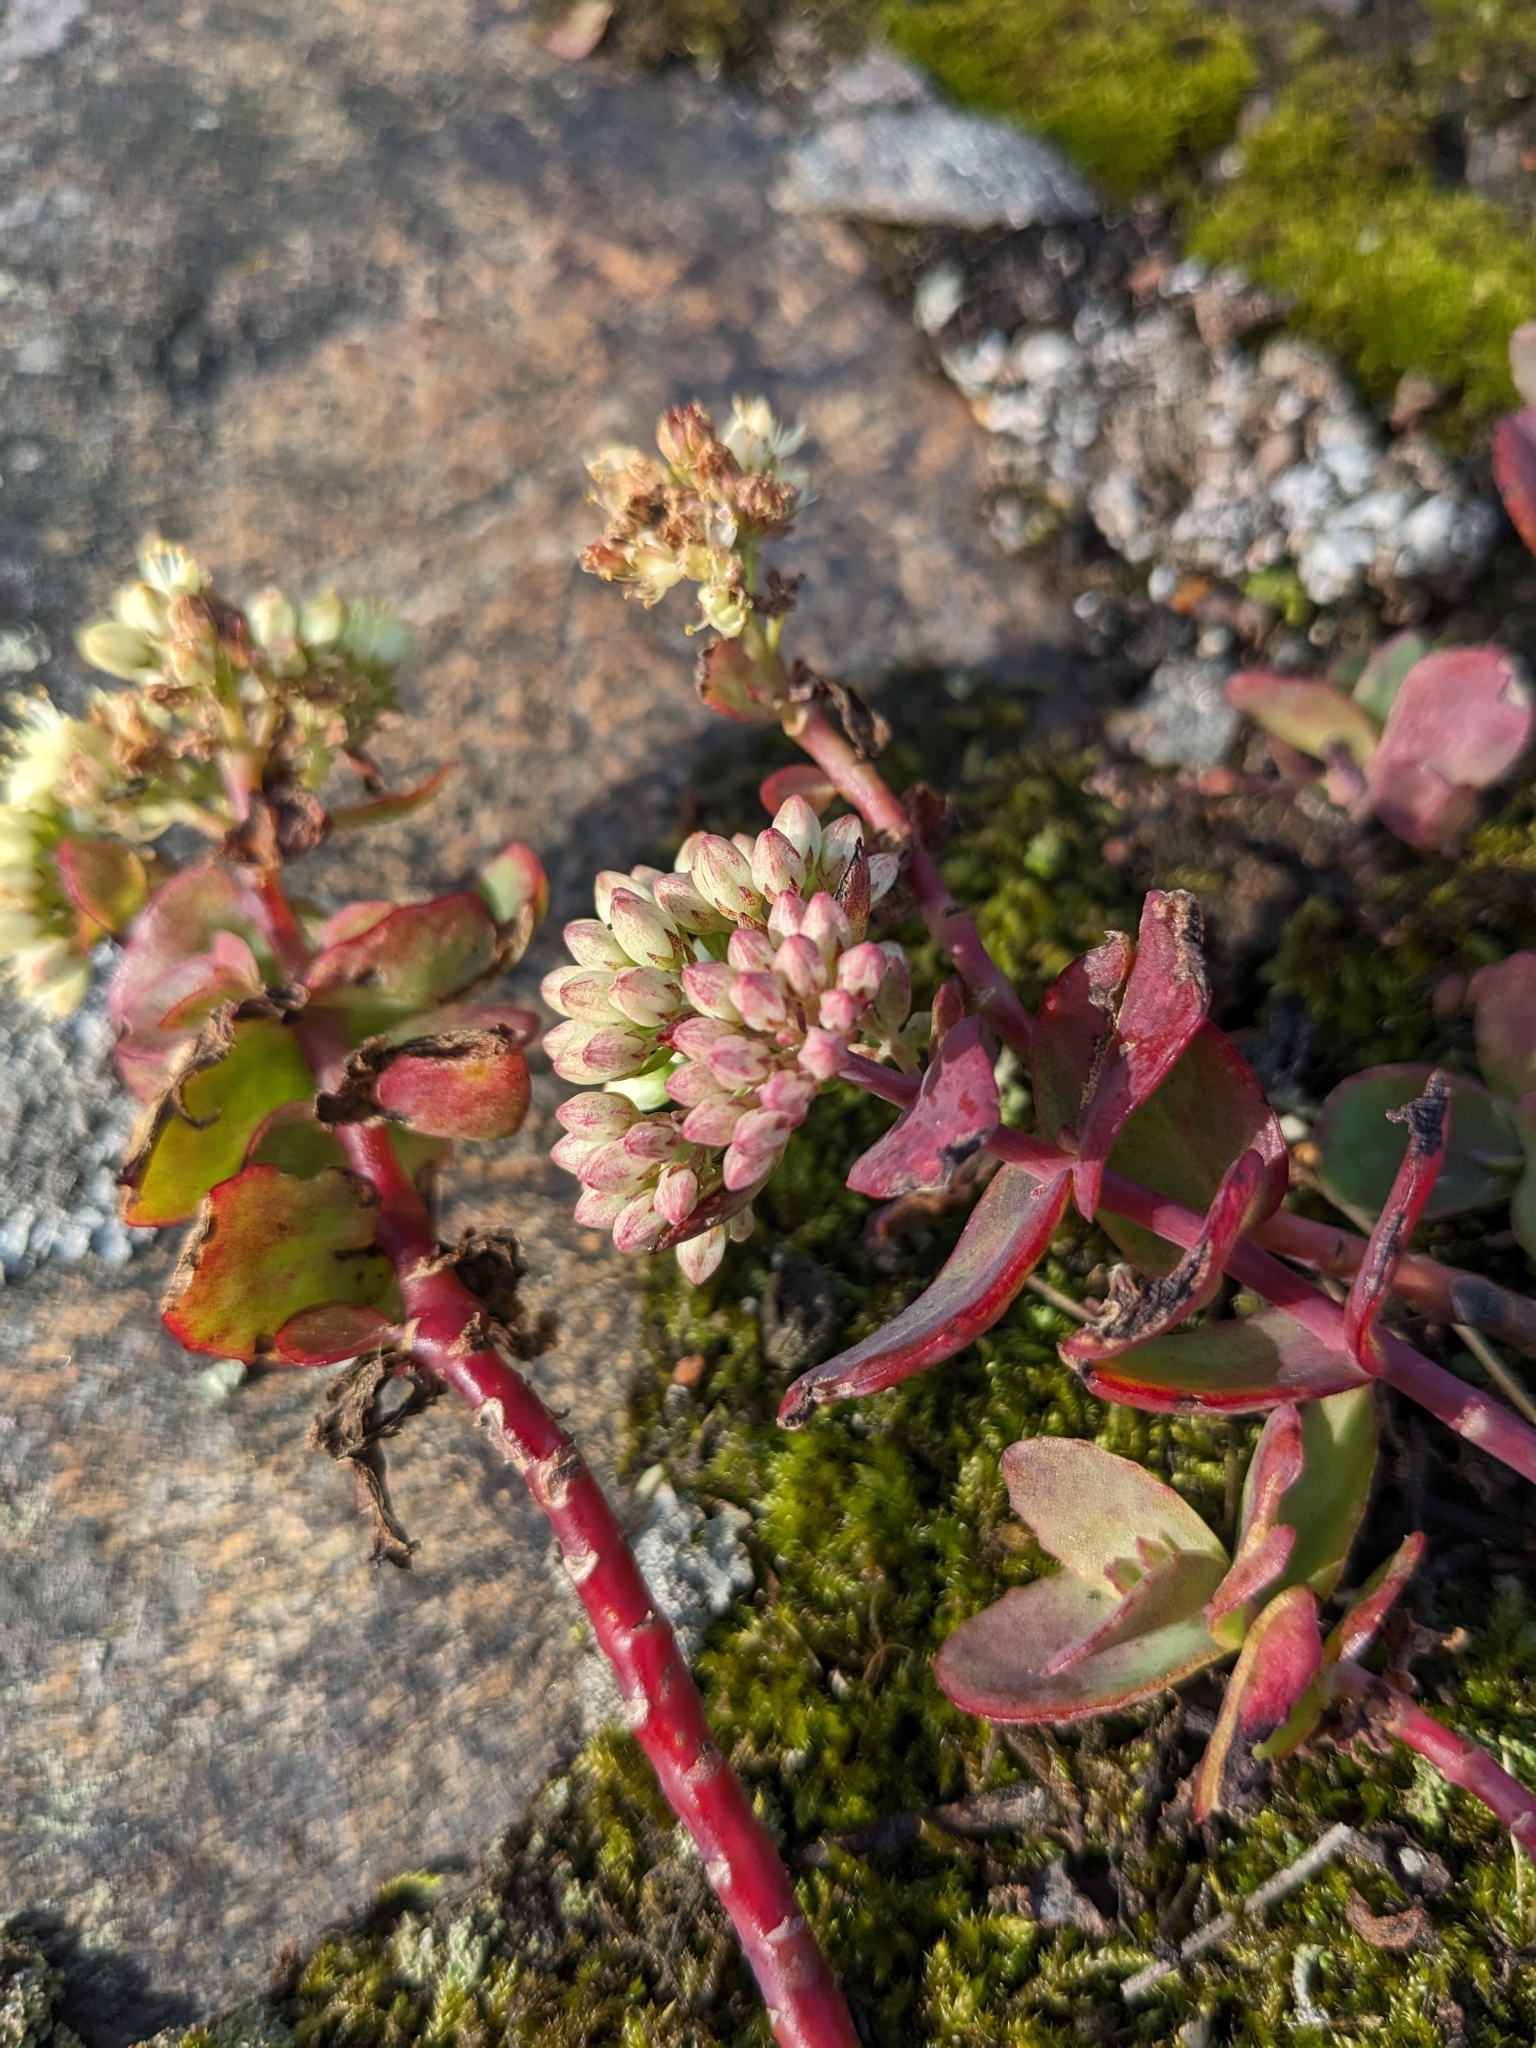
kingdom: Plantae
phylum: Tracheophyta
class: Magnoliopsida
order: Saxifragales
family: Crassulaceae
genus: Hylotelephium
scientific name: Hylotelephium maximum
